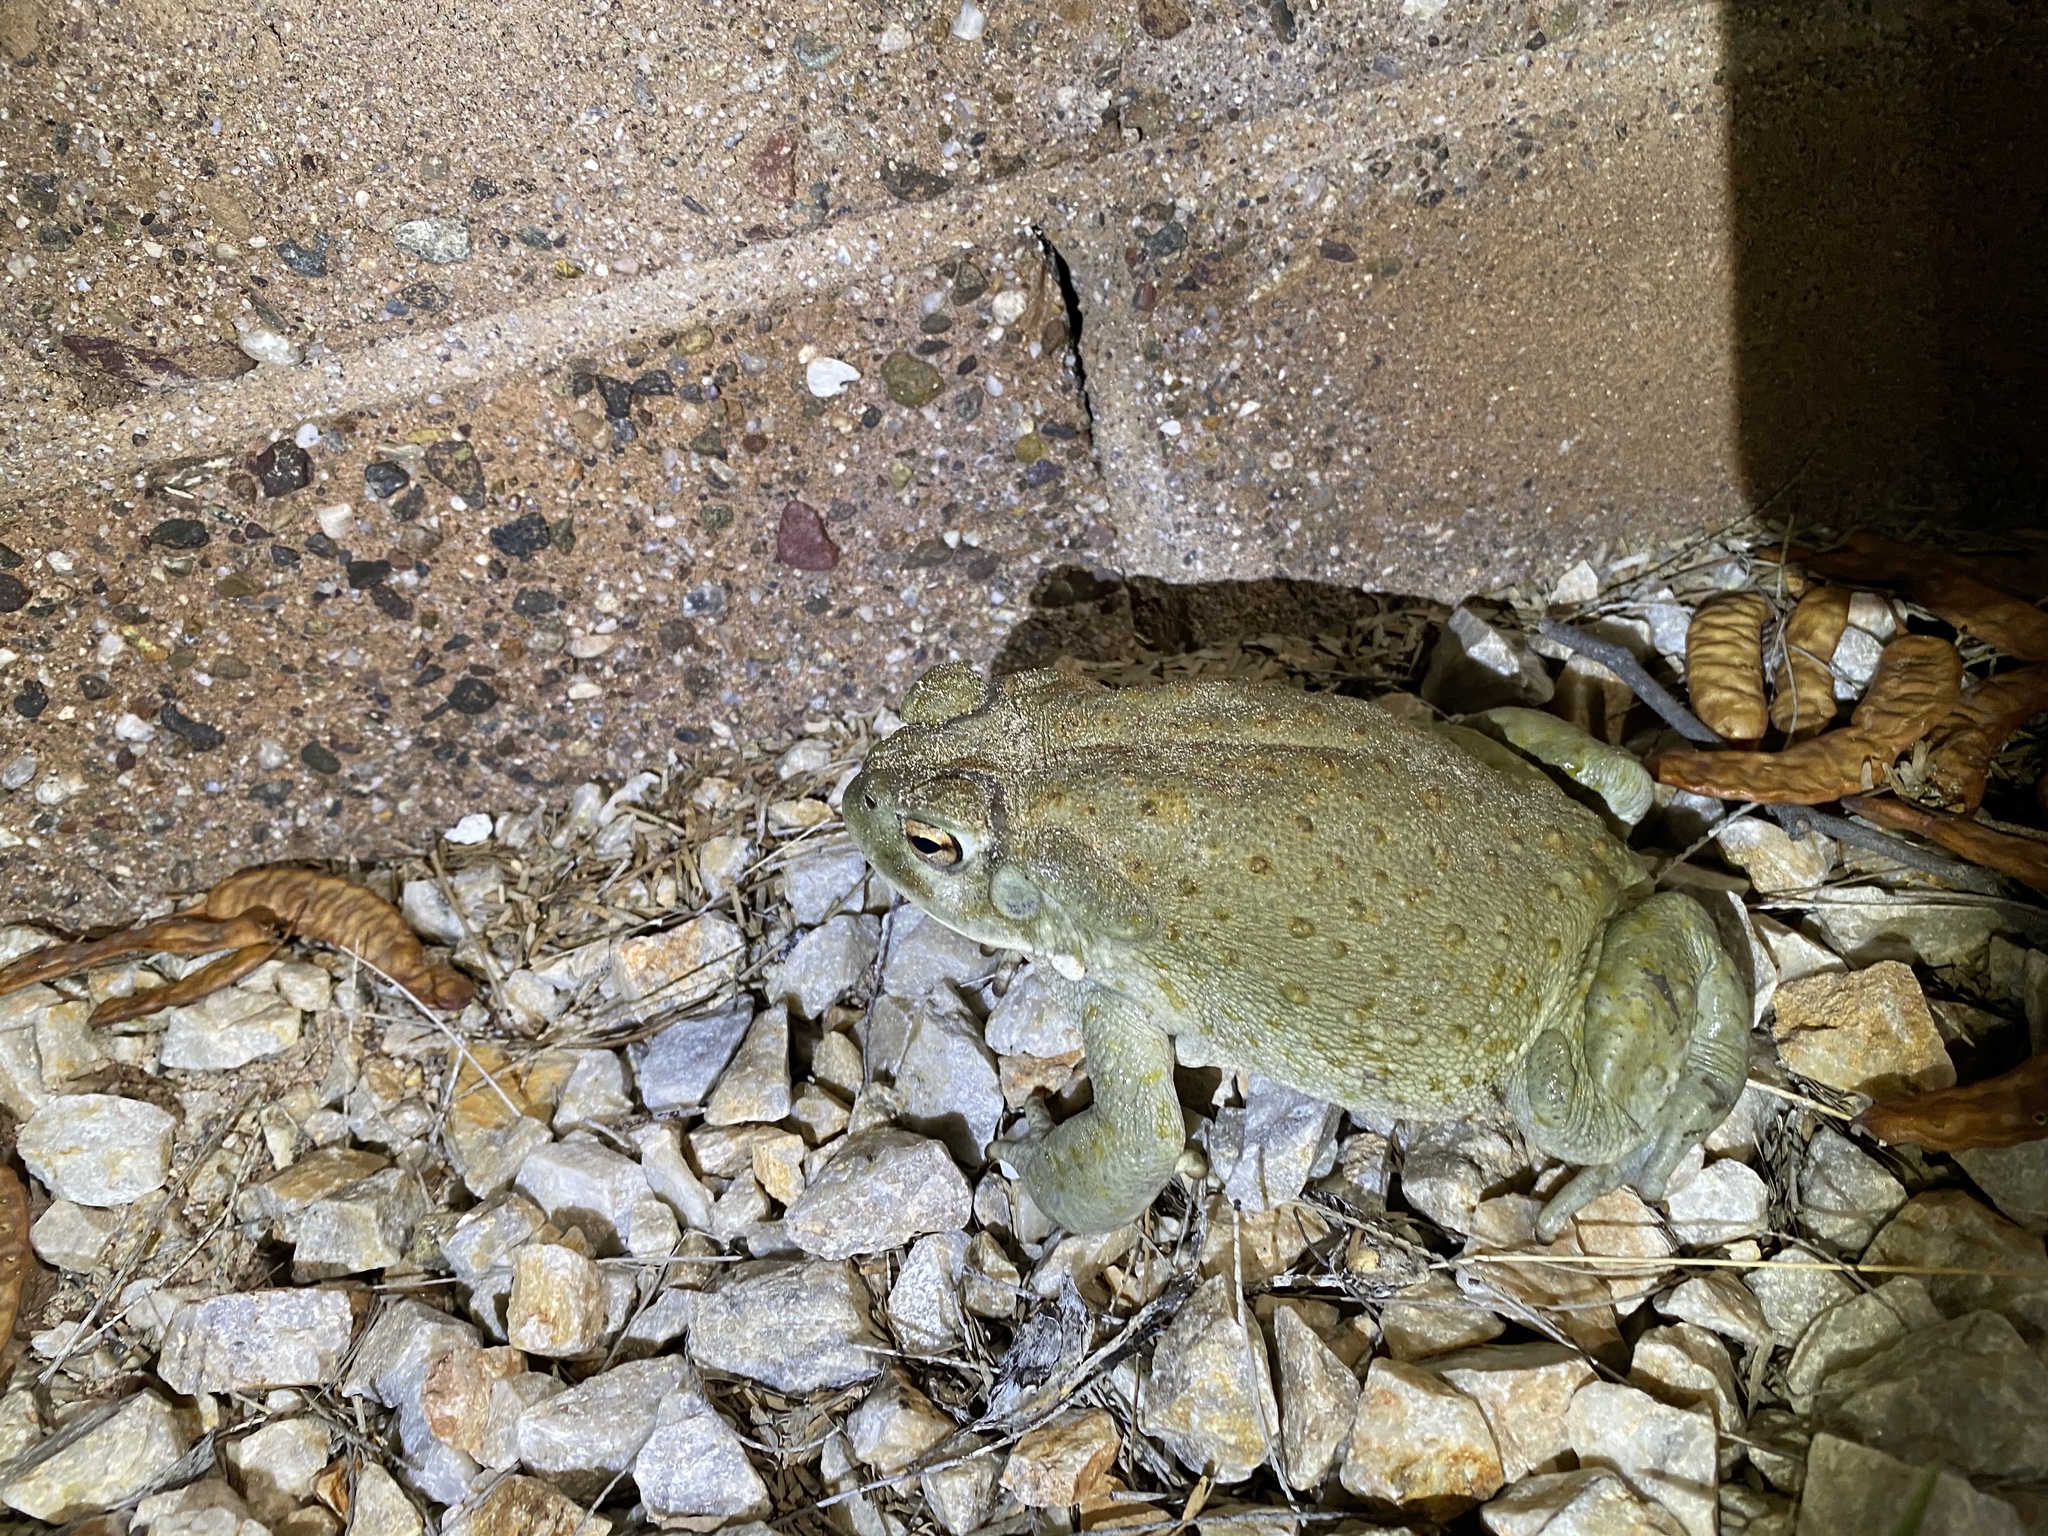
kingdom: Animalia
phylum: Chordata
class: Amphibia
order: Anura
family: Bufonidae
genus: Incilius
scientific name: Incilius alvarius
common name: Sonoran desert toad
